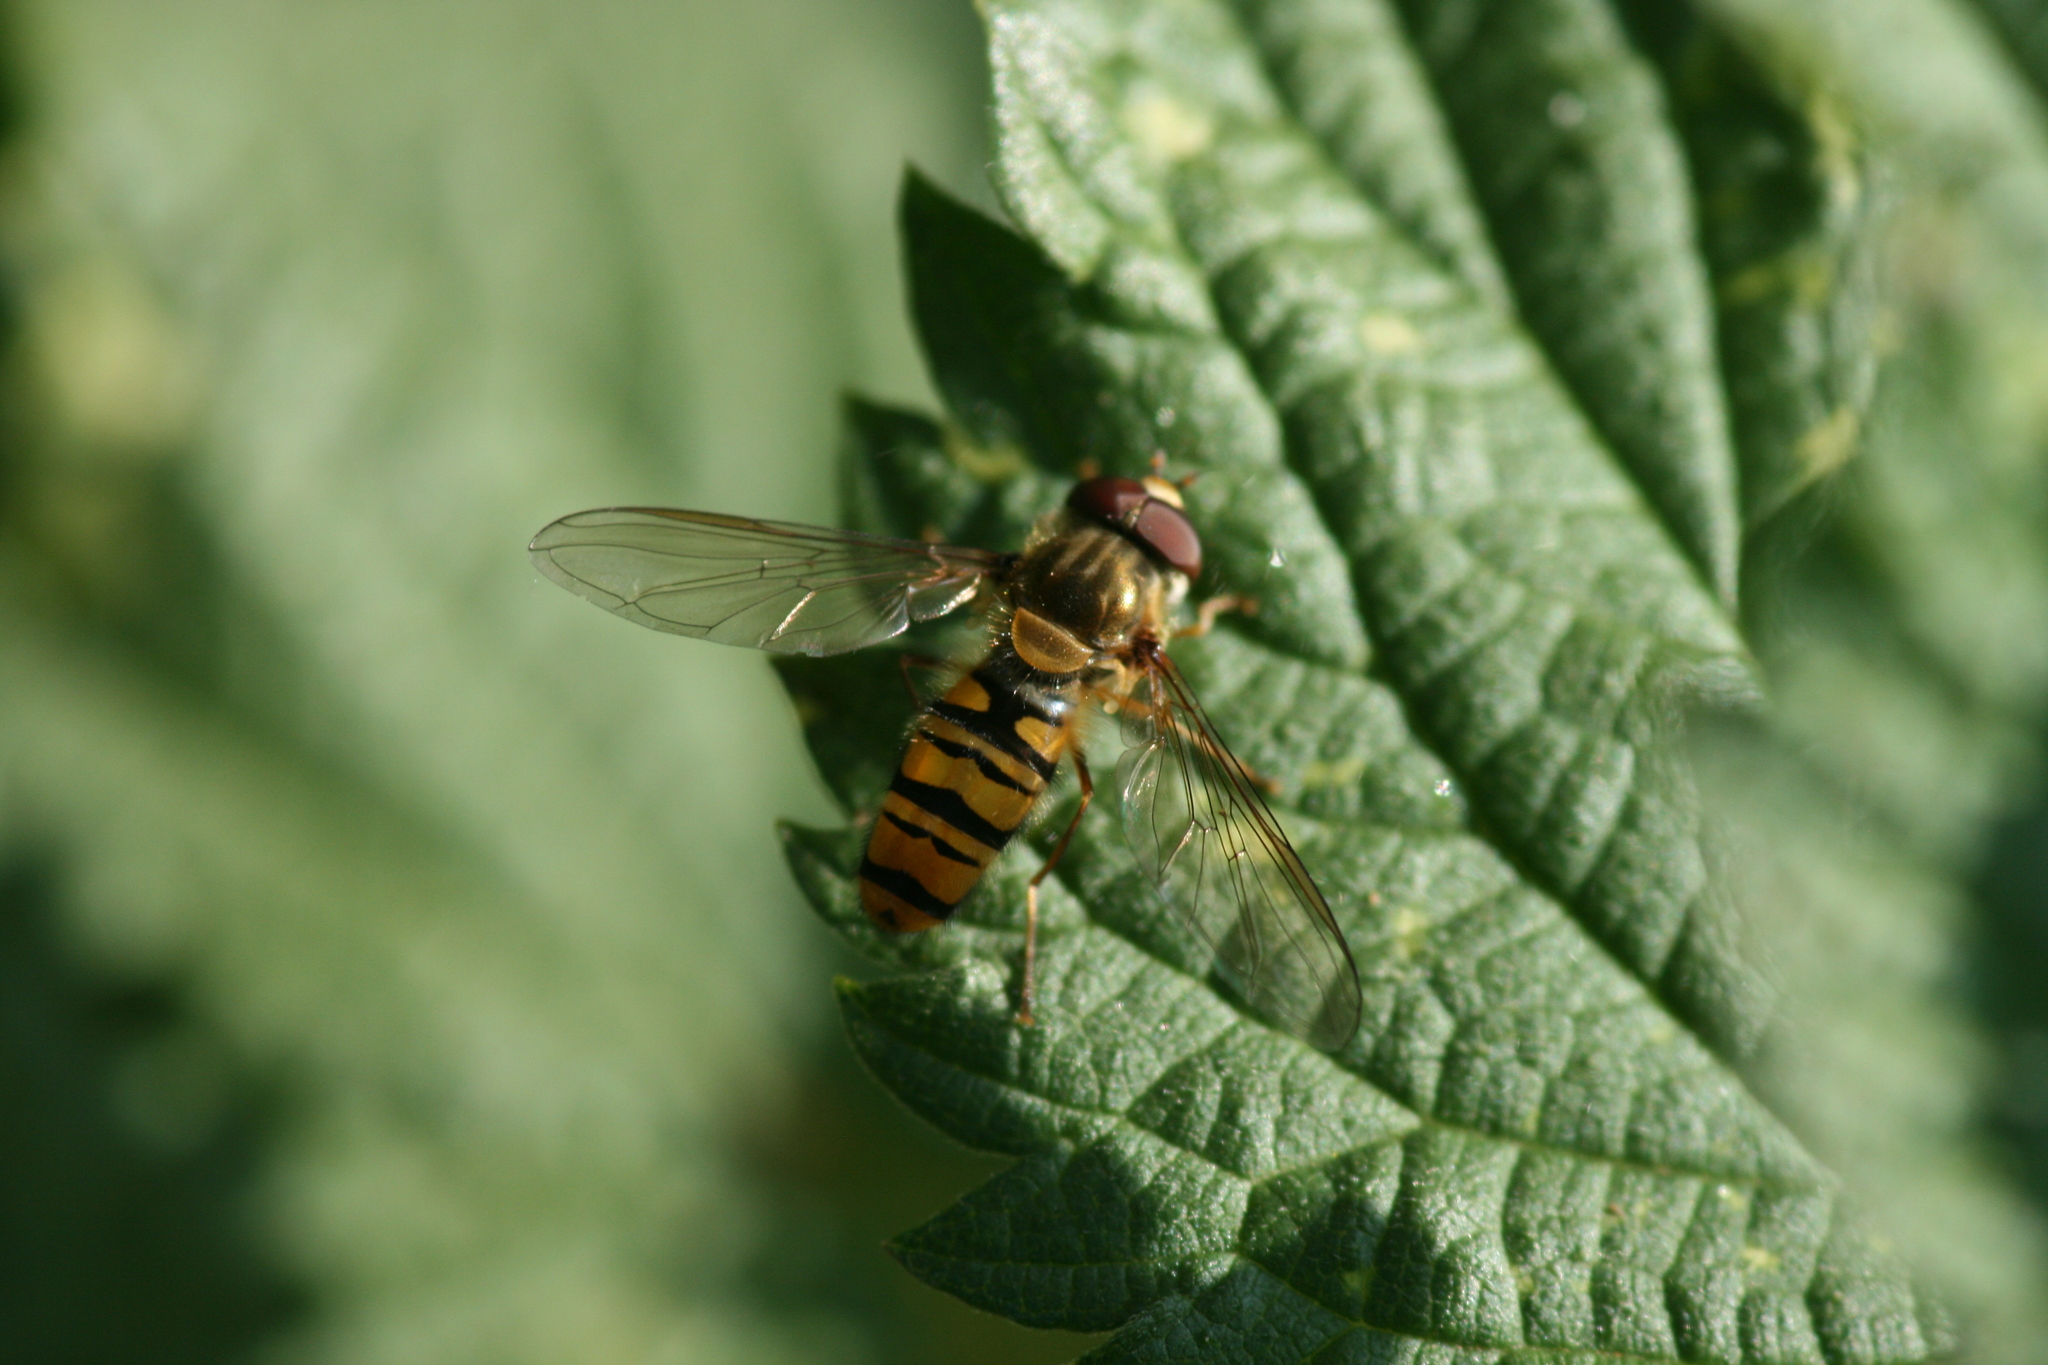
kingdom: Animalia
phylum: Arthropoda
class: Insecta
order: Diptera
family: Syrphidae
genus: Episyrphus
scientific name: Episyrphus balteatus
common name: Marmalade hoverfly
